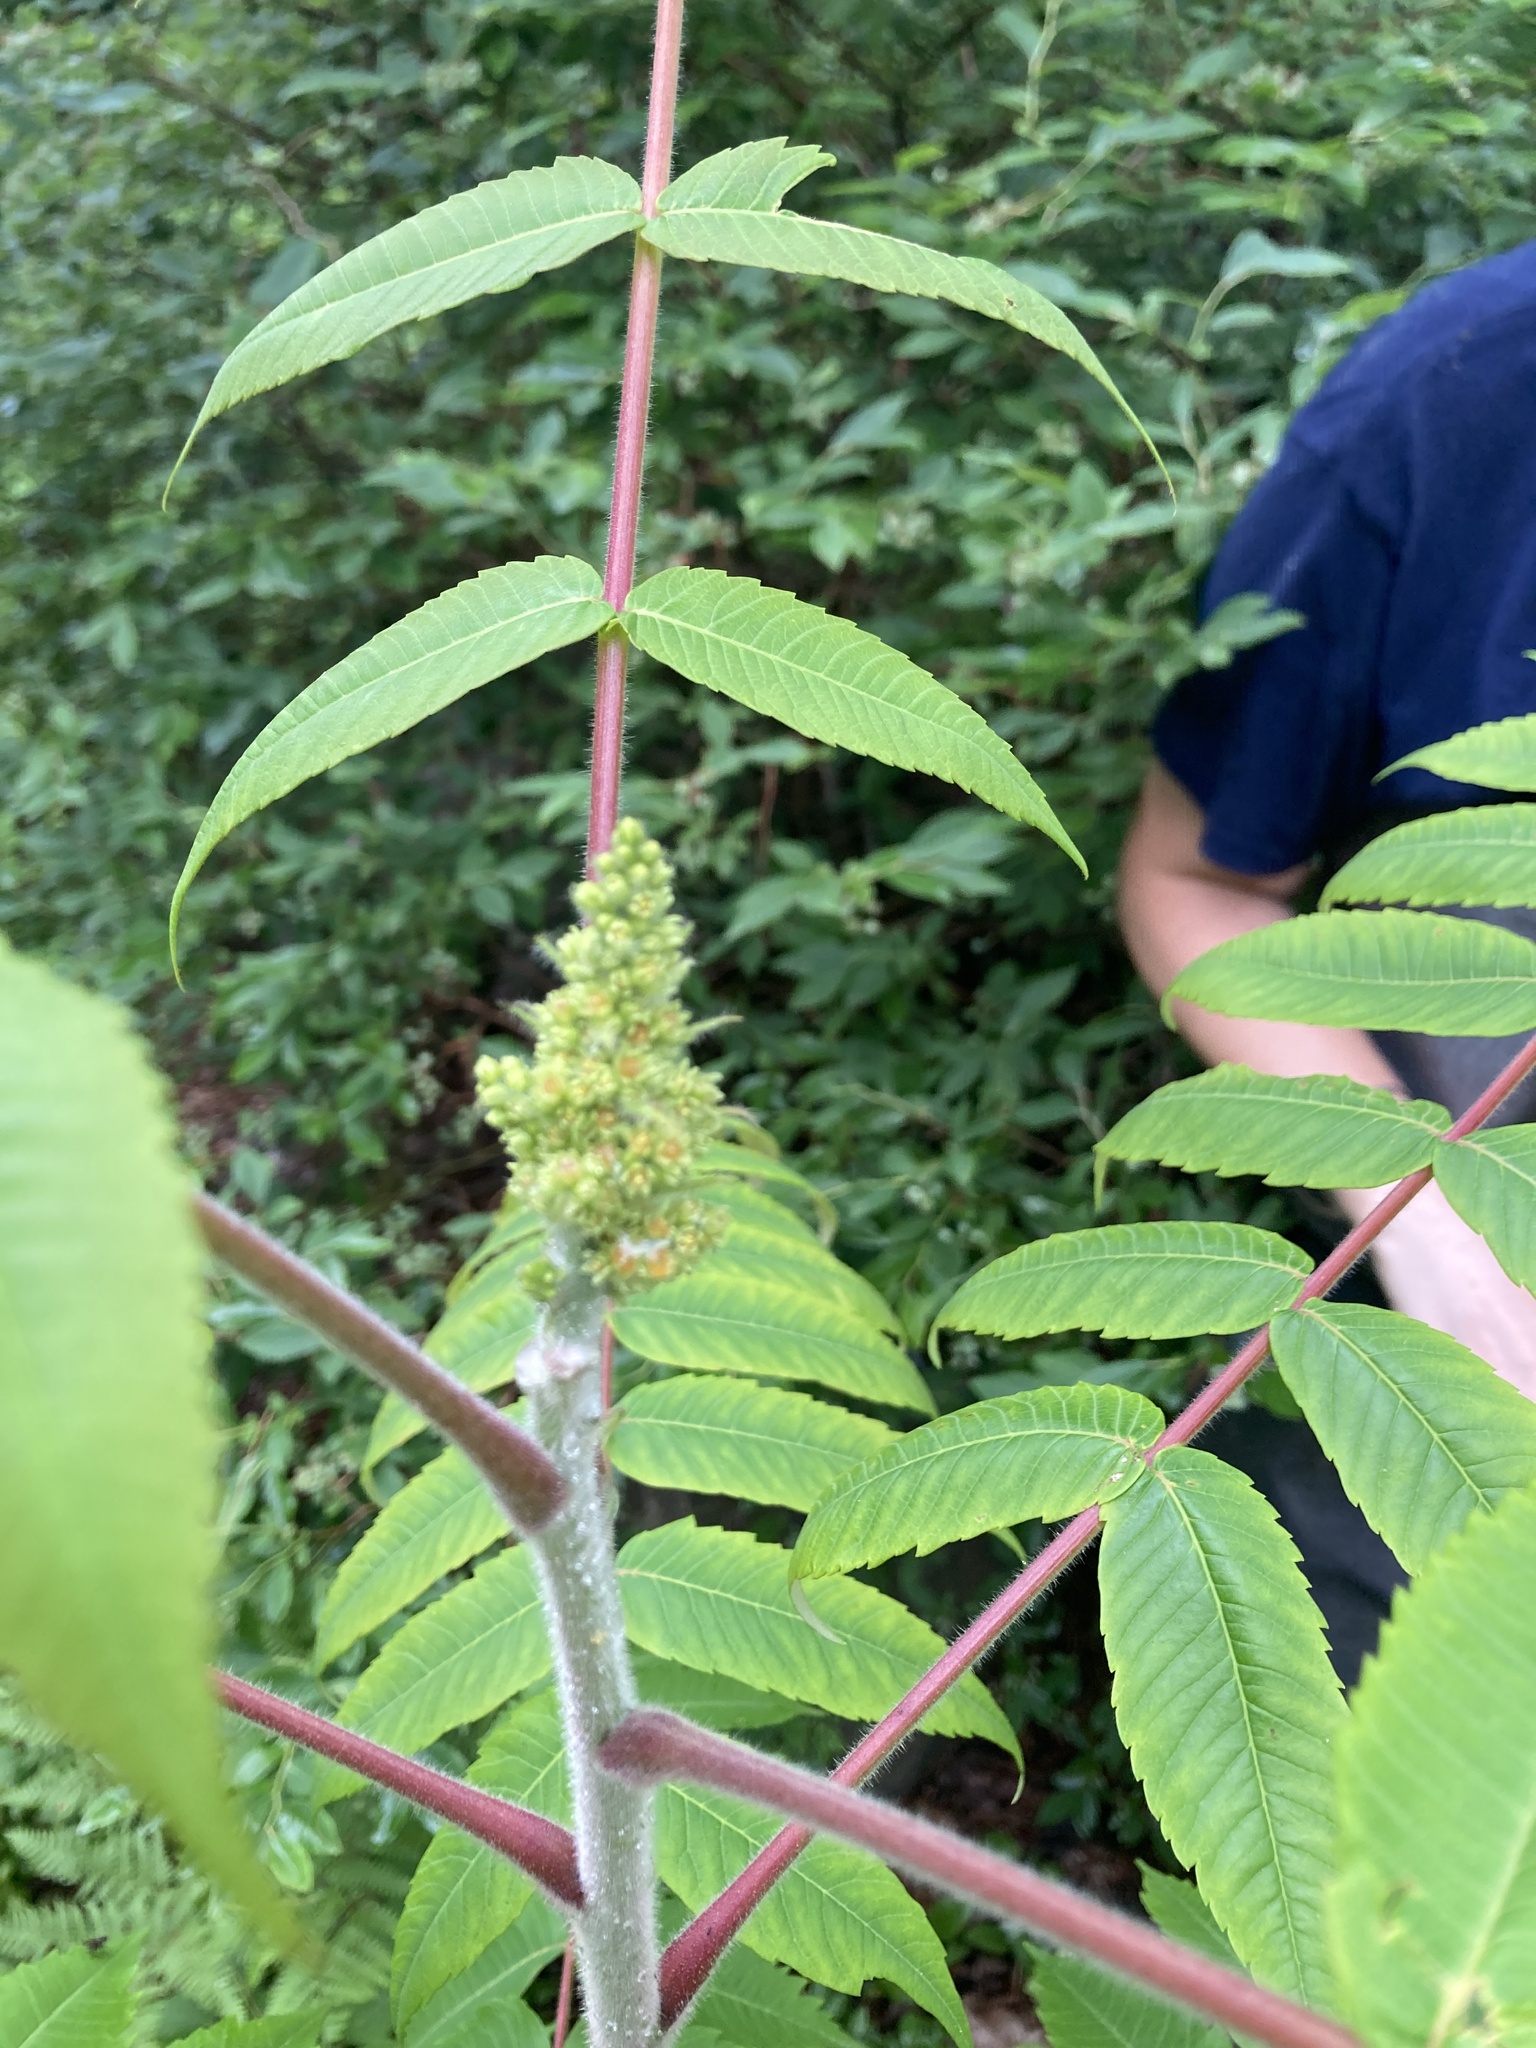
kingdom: Plantae
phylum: Tracheophyta
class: Magnoliopsida
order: Sapindales
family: Anacardiaceae
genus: Rhus
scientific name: Rhus typhina
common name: Staghorn sumac
